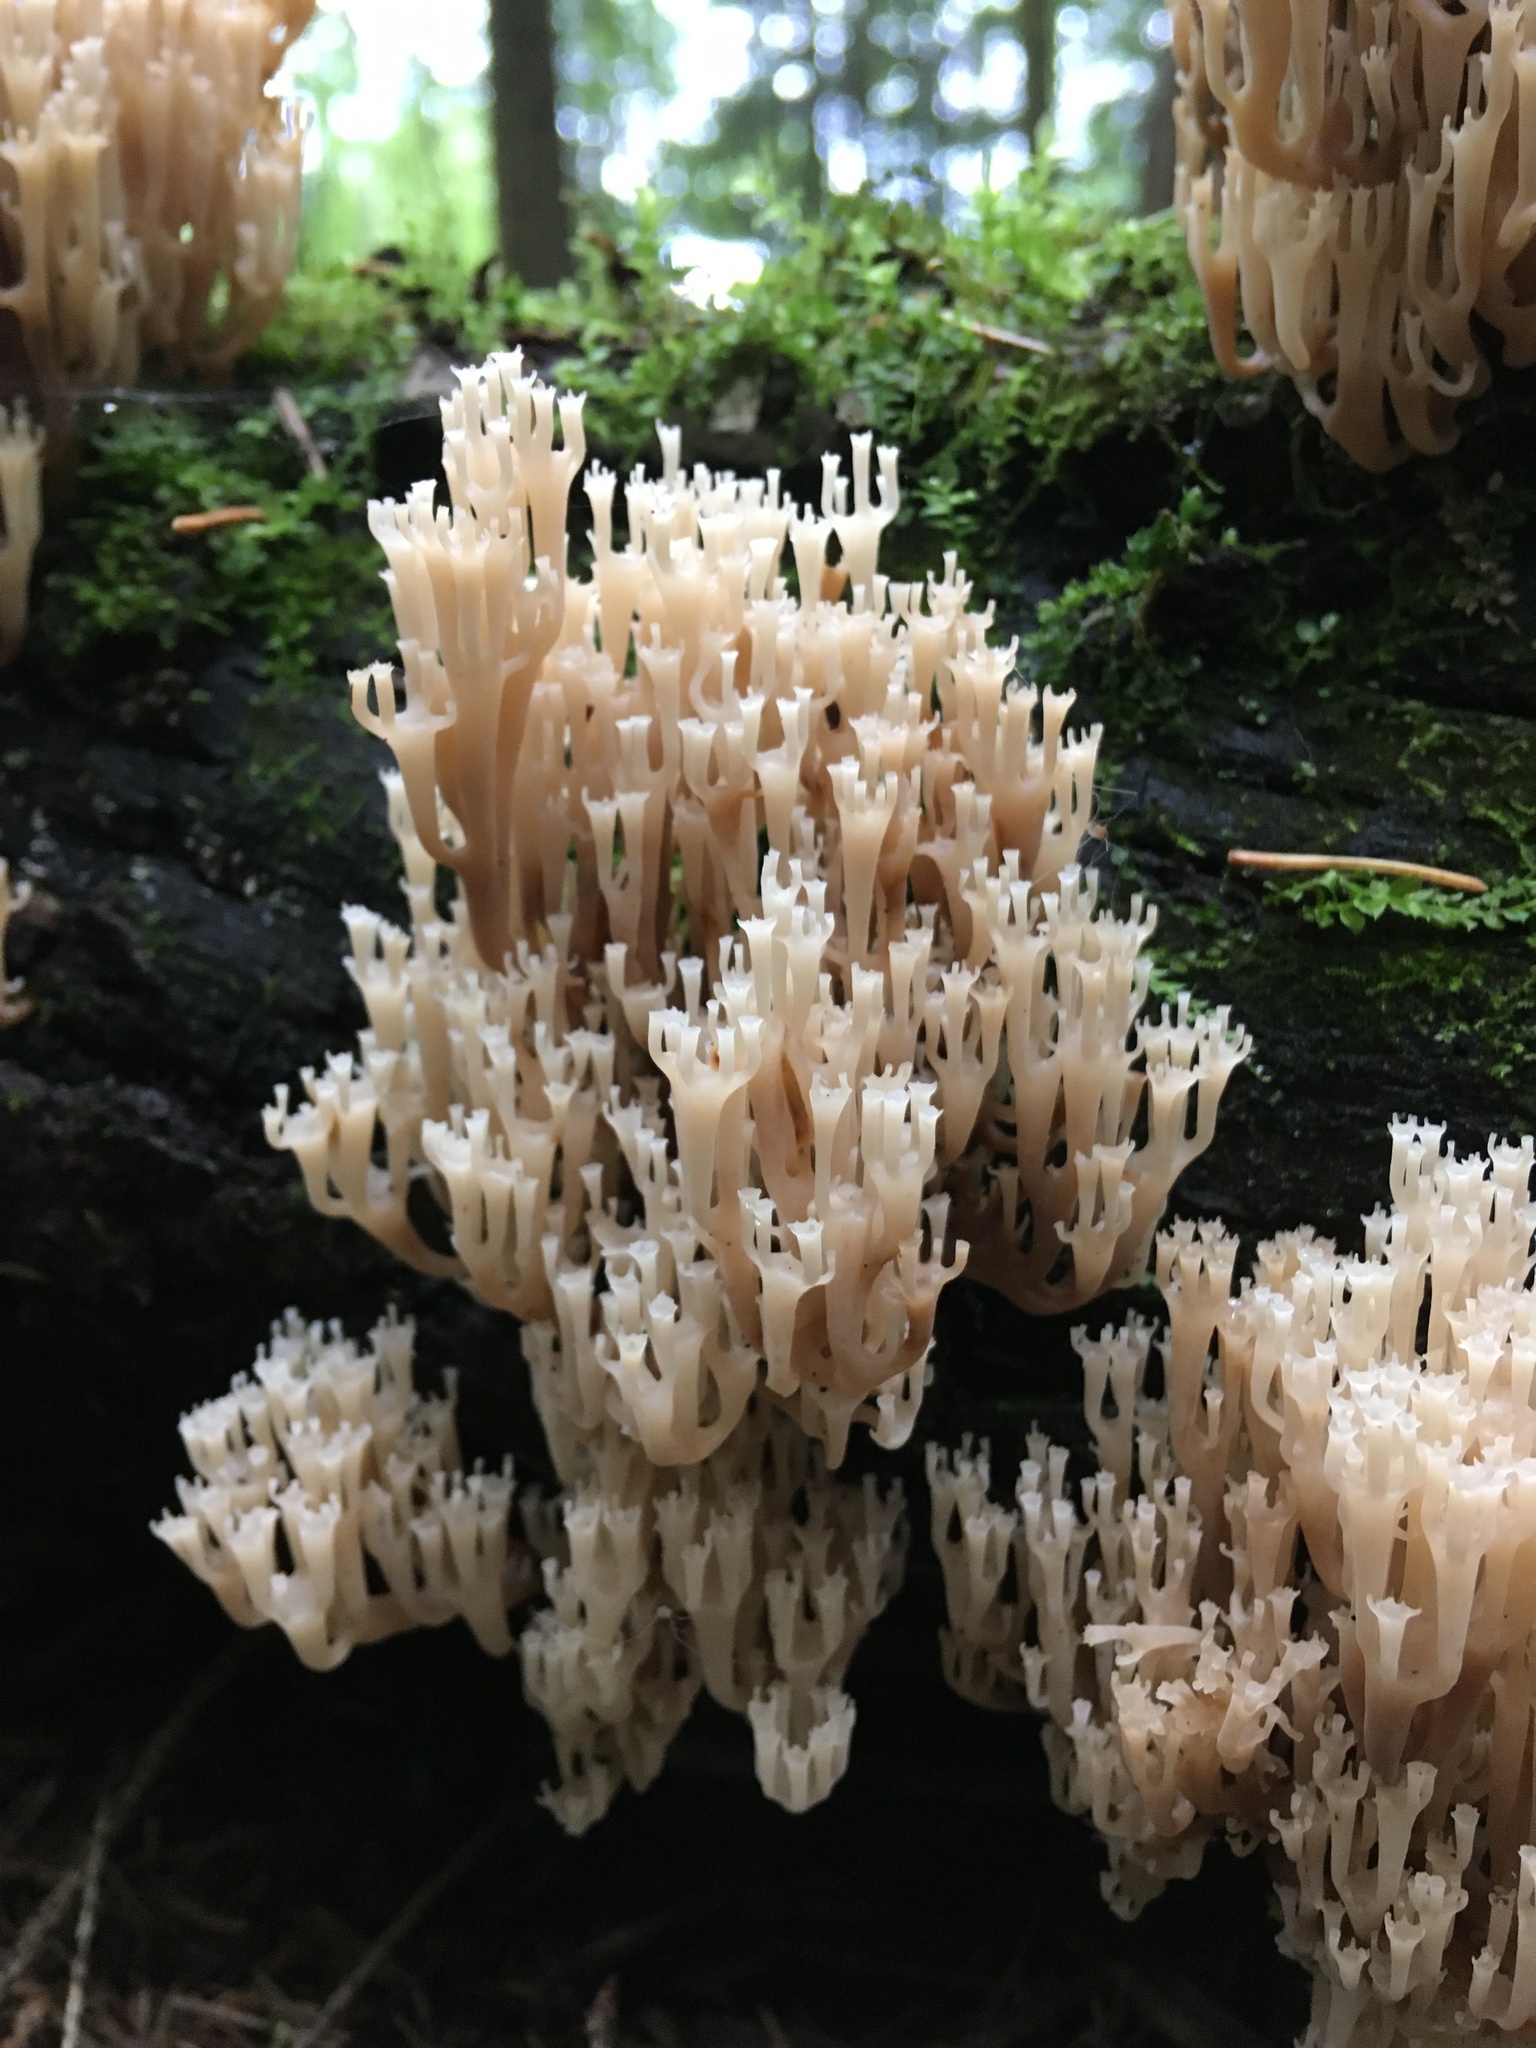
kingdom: Fungi
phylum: Basidiomycota
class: Agaricomycetes
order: Russulales
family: Auriscalpiaceae
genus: Artomyces
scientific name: Artomyces pyxidatus
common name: Crown-tipped coral fungus
